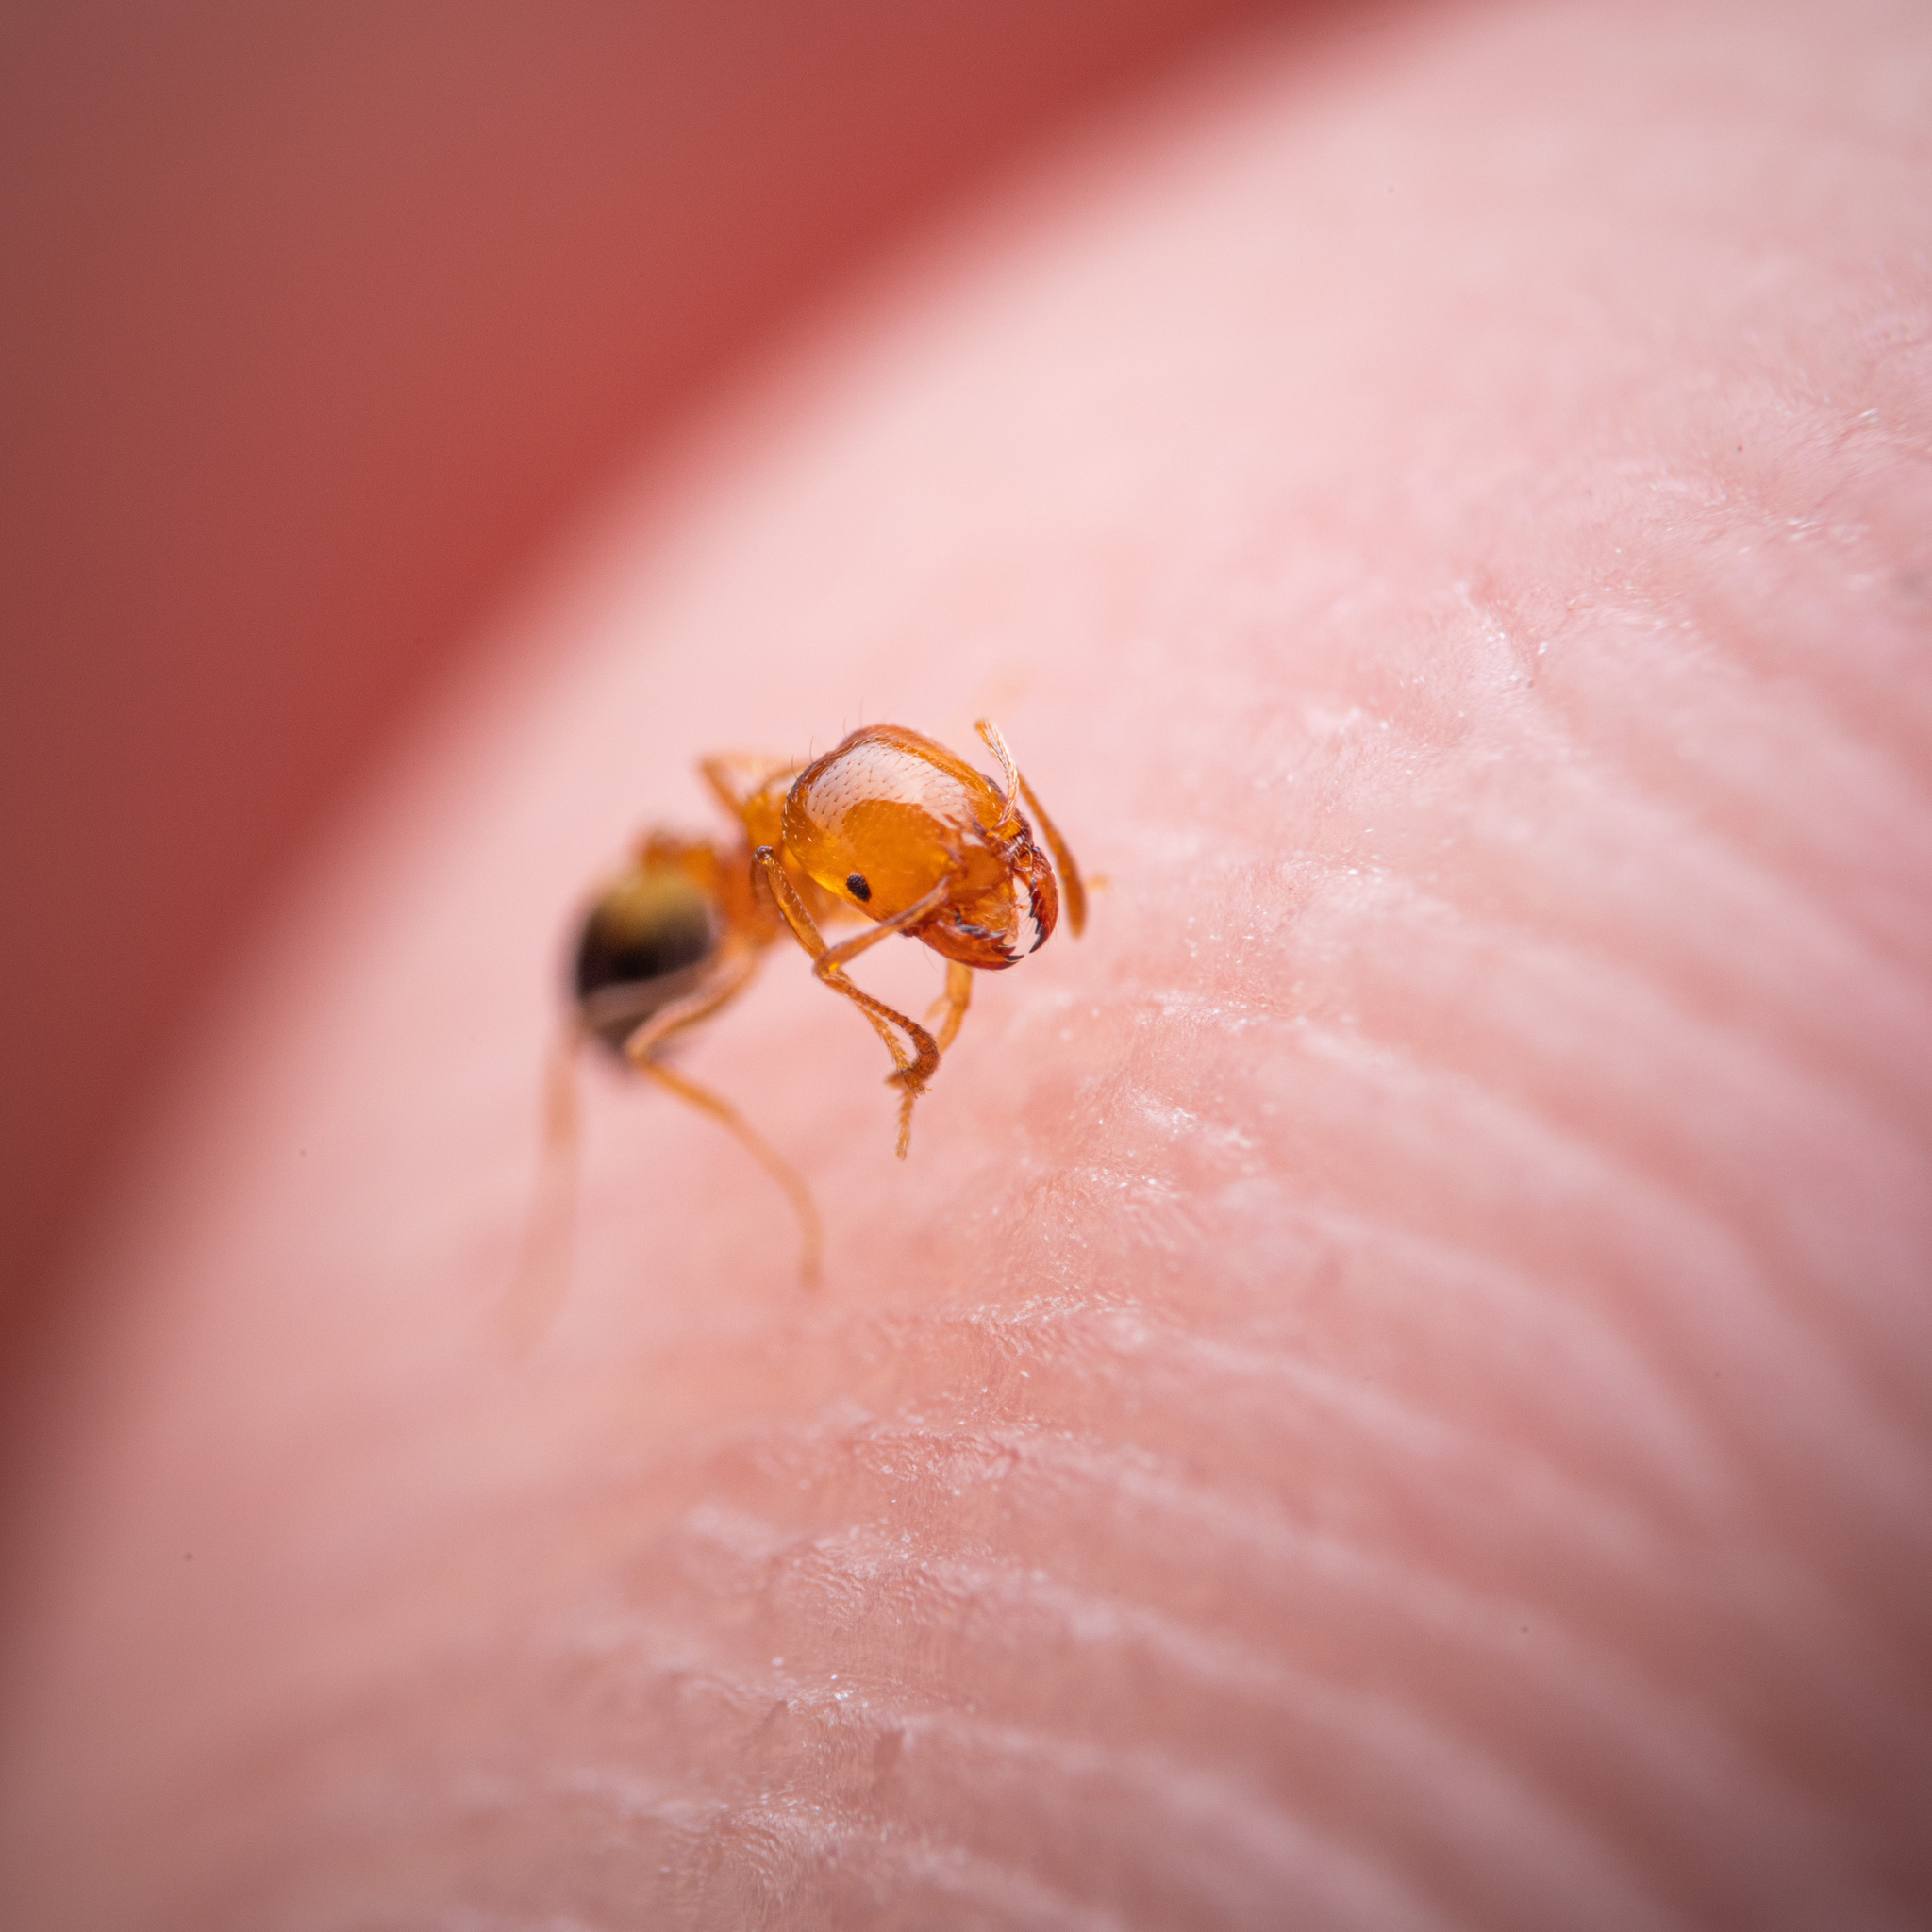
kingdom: Animalia
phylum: Arthropoda
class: Insecta
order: Hymenoptera
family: Formicidae
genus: Solenopsis
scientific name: Solenopsis geminata
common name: Tropical fire ant
